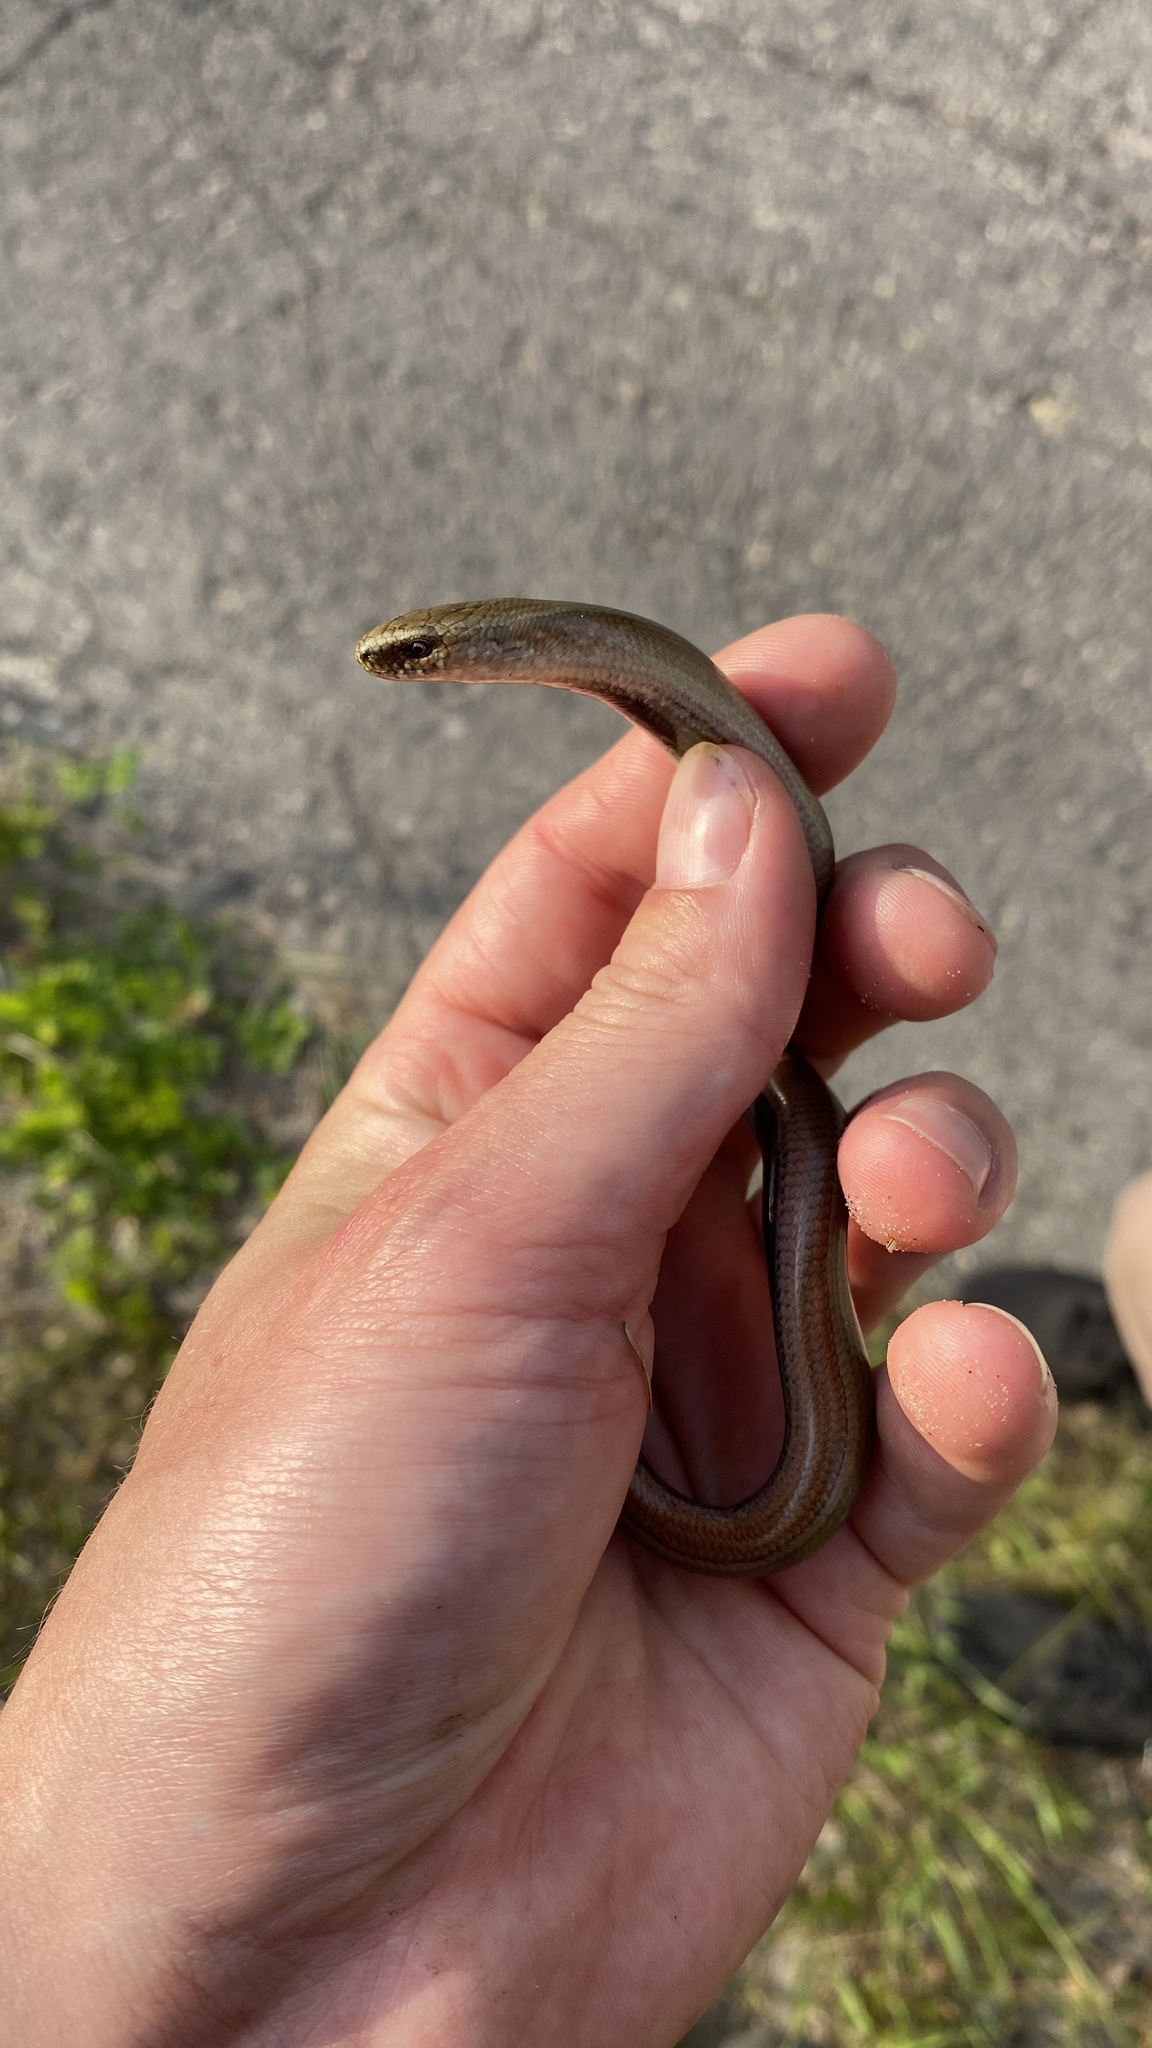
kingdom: Animalia
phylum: Chordata
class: Squamata
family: Anguidae
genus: Anguis
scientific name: Anguis
